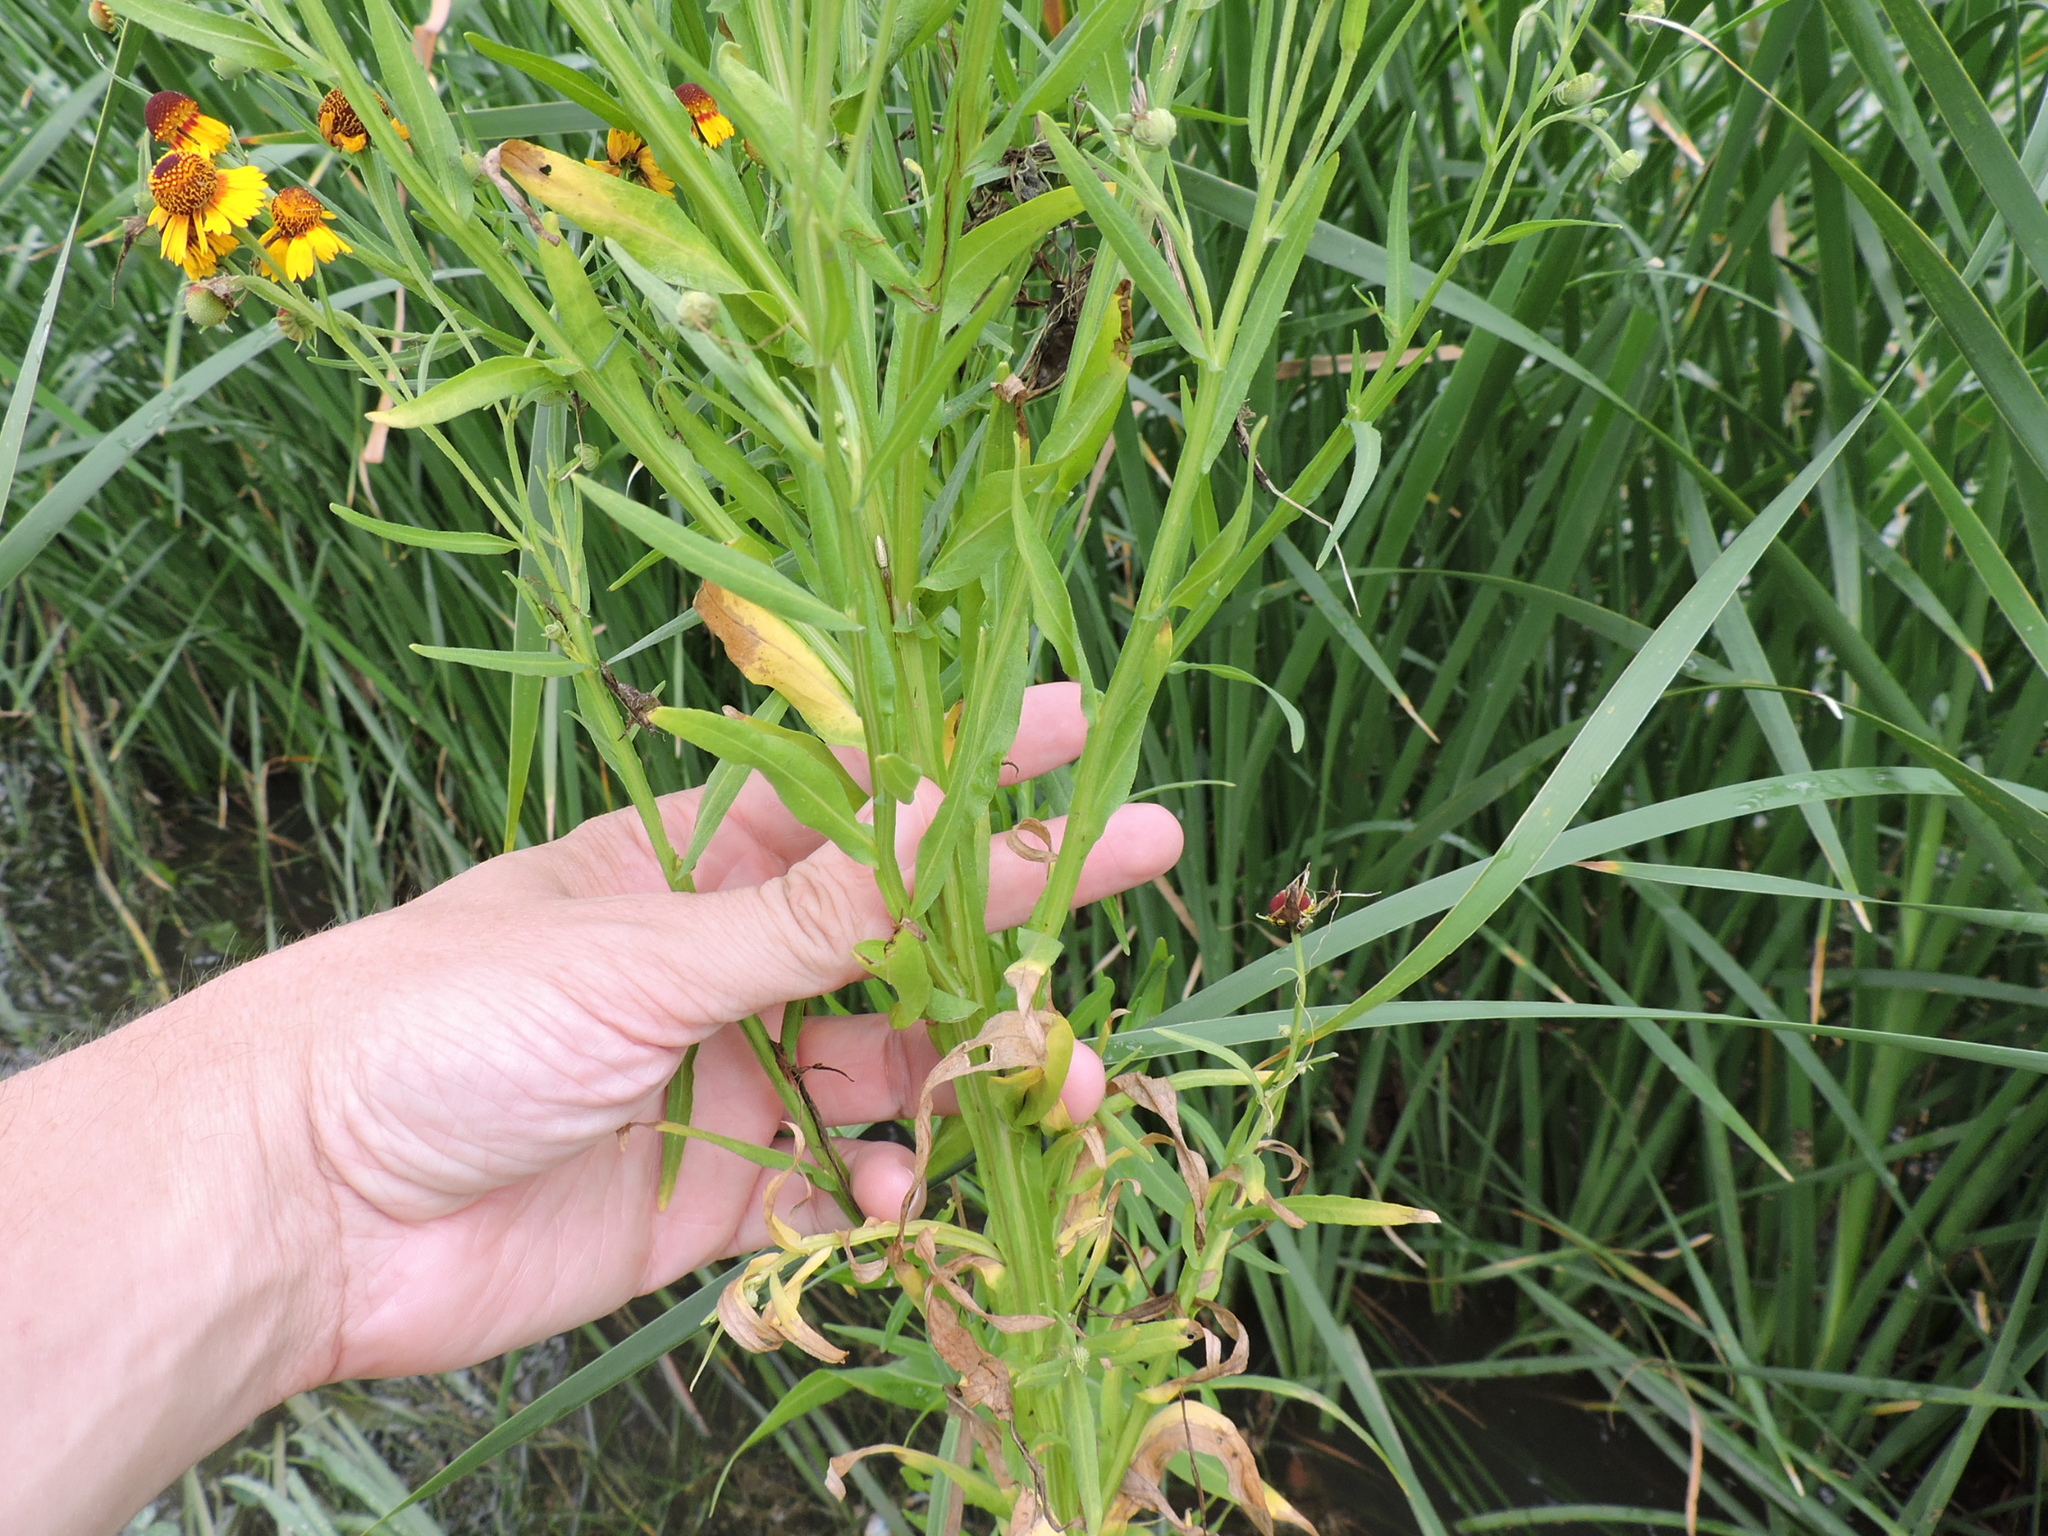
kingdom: Plantae
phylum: Tracheophyta
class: Magnoliopsida
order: Asterales
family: Asteraceae
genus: Helenium
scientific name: Helenium elegans
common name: Pretty sneezeweed
